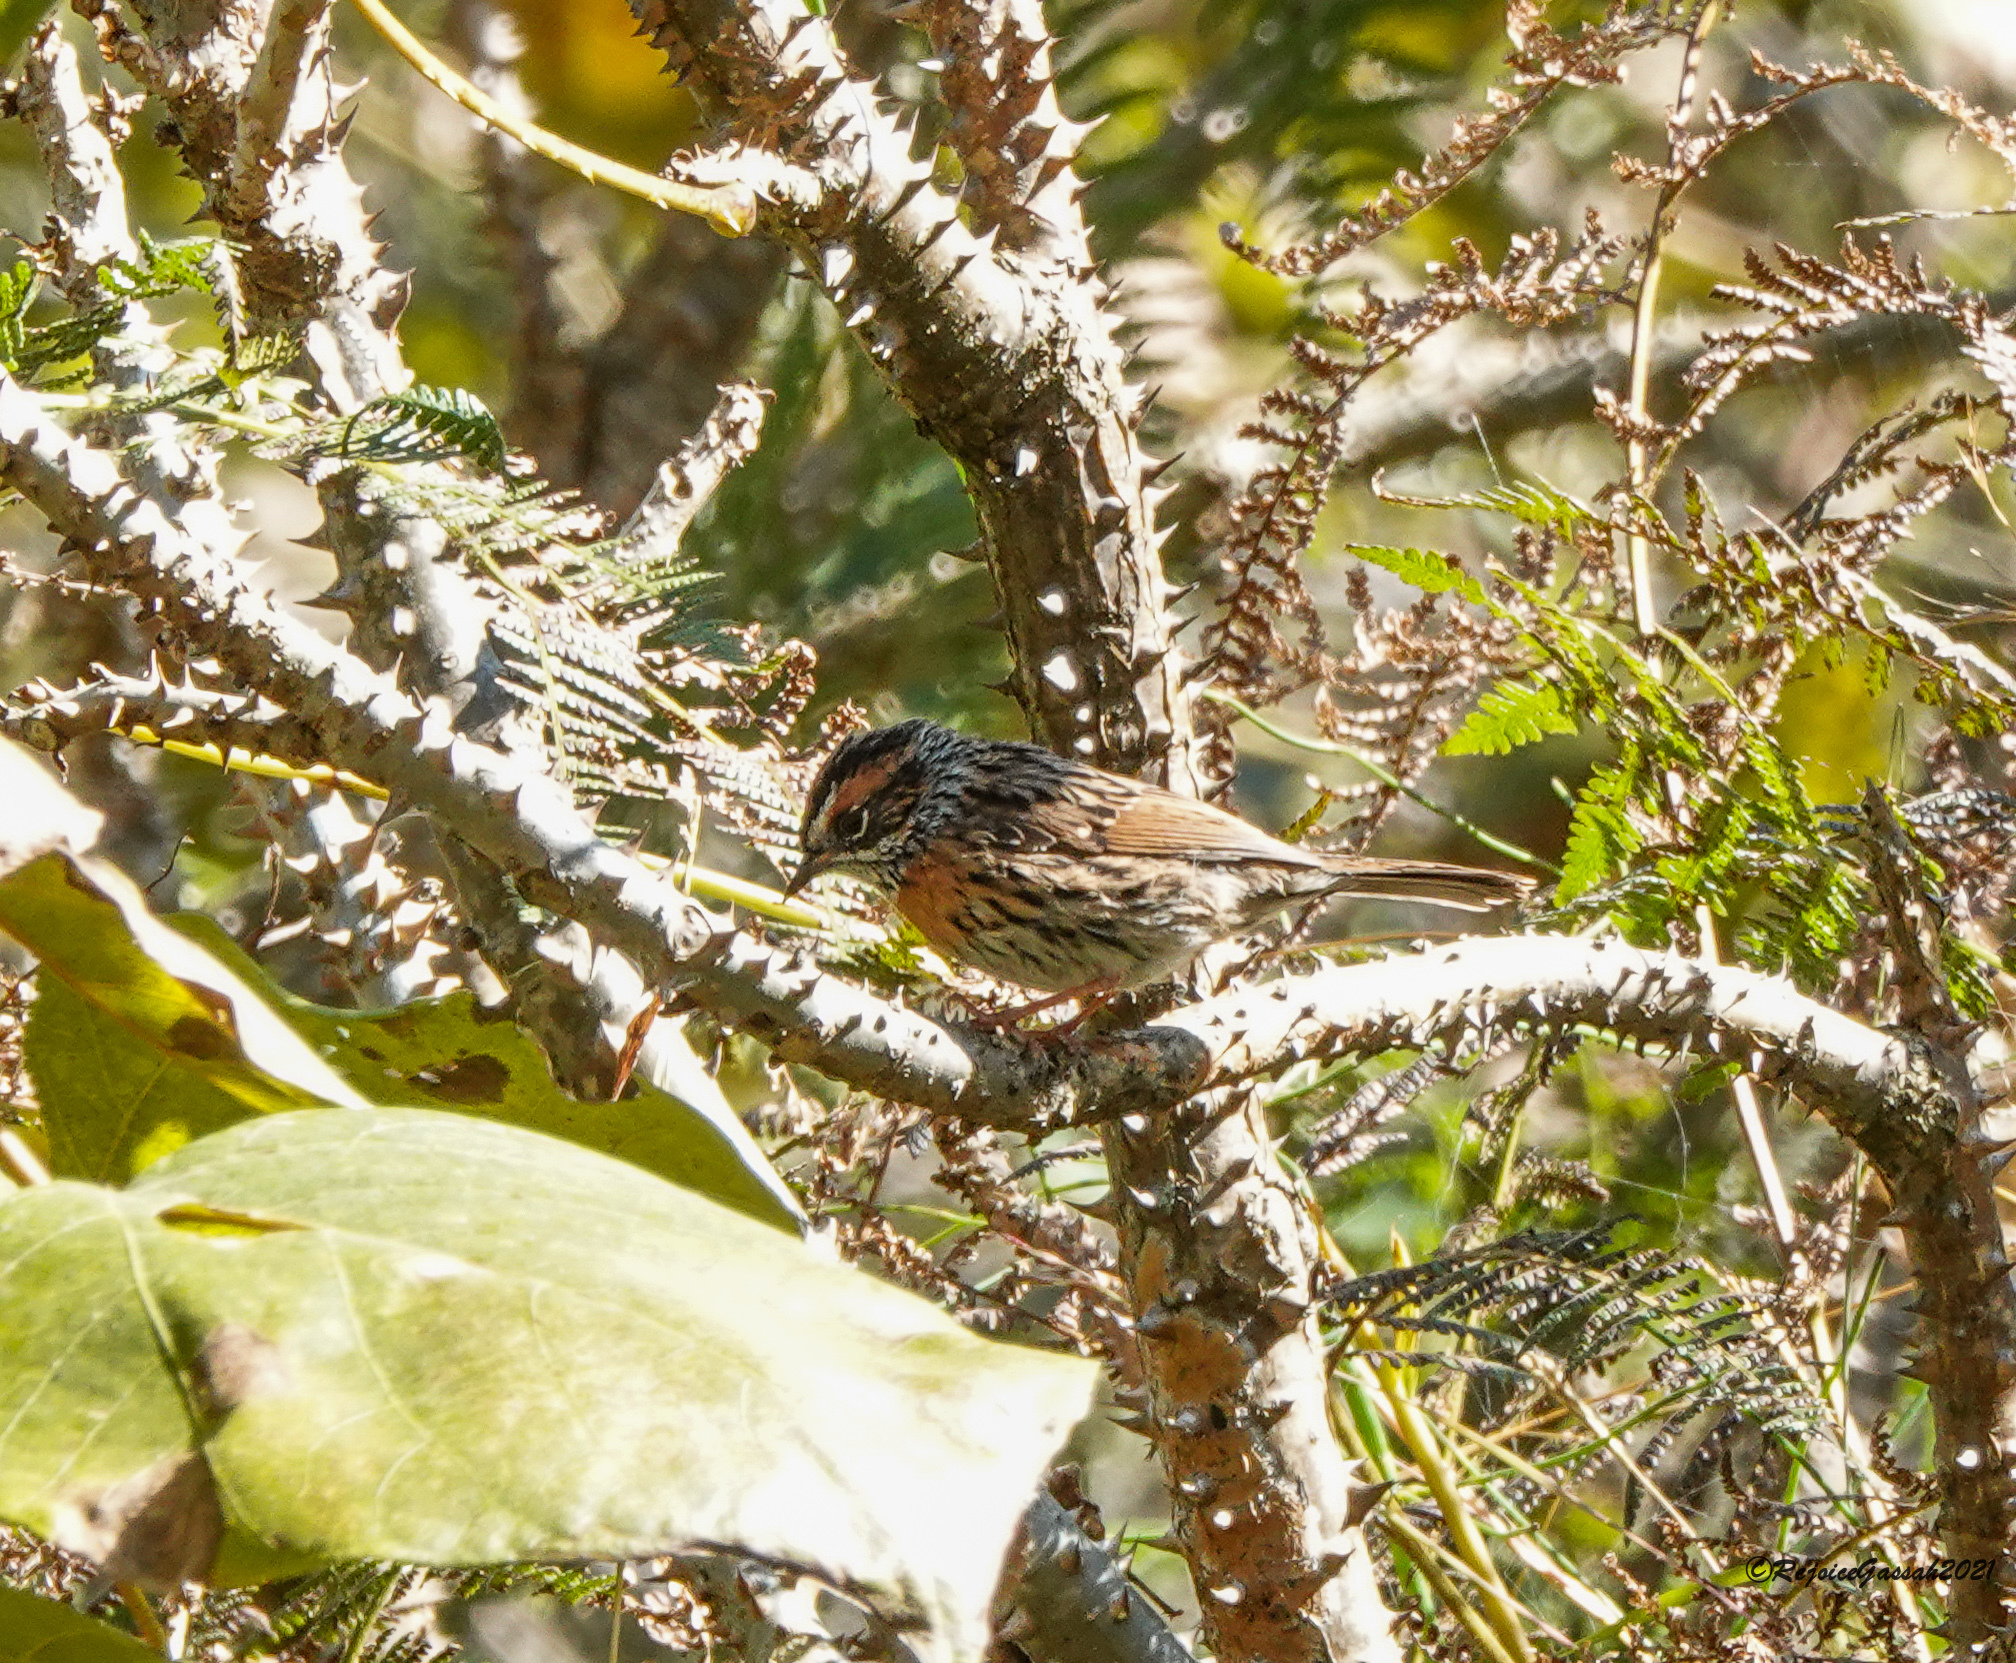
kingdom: Animalia
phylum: Chordata
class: Aves
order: Passeriformes
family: Prunellidae
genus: Prunella
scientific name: Prunella strophiata
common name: Rufous-breasted accentor
